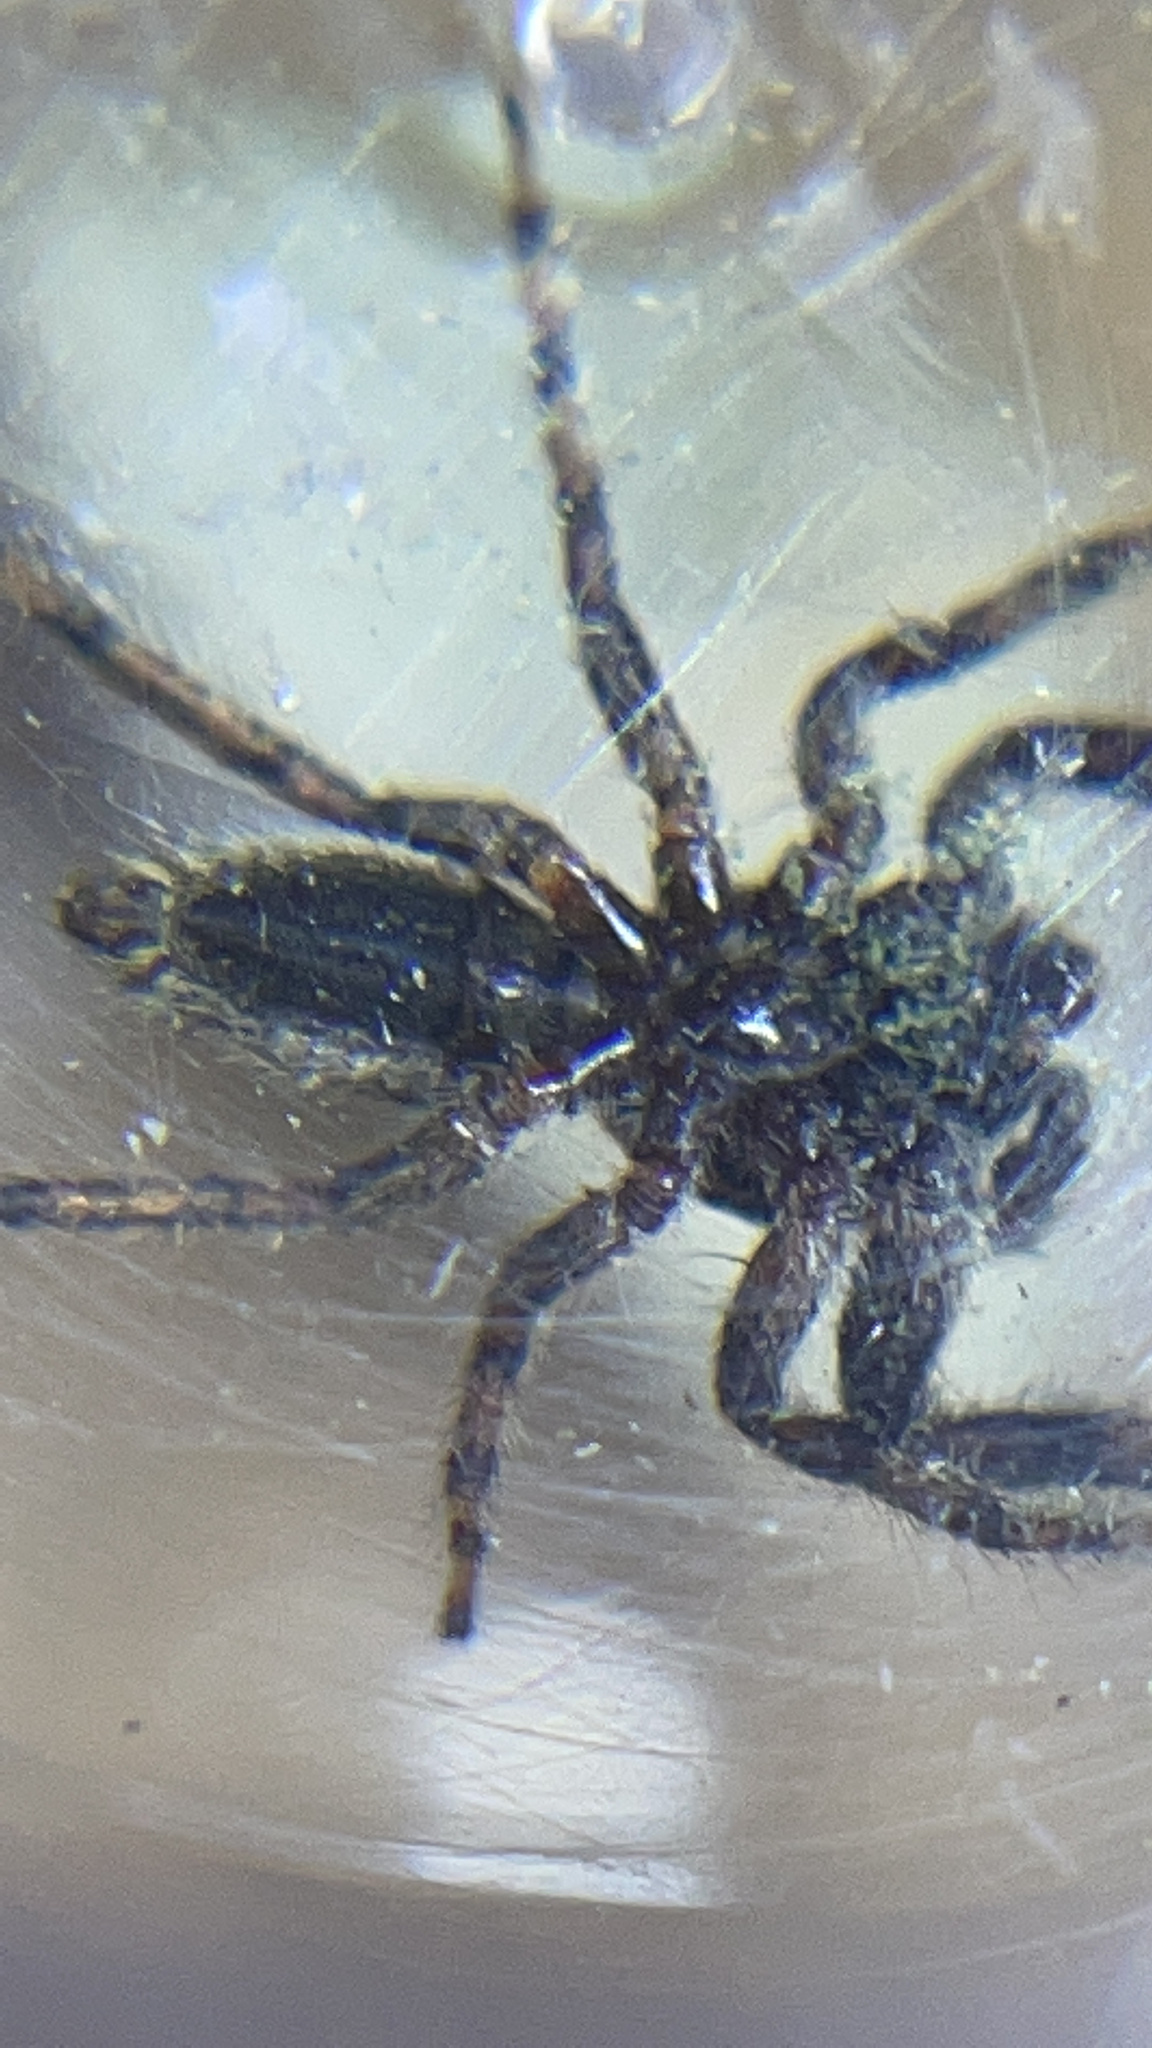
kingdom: Animalia
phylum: Arthropoda
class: Arachnida
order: Araneae
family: Salticidae
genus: Platycryptus
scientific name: Platycryptus undatus
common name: Tan jumping spider
